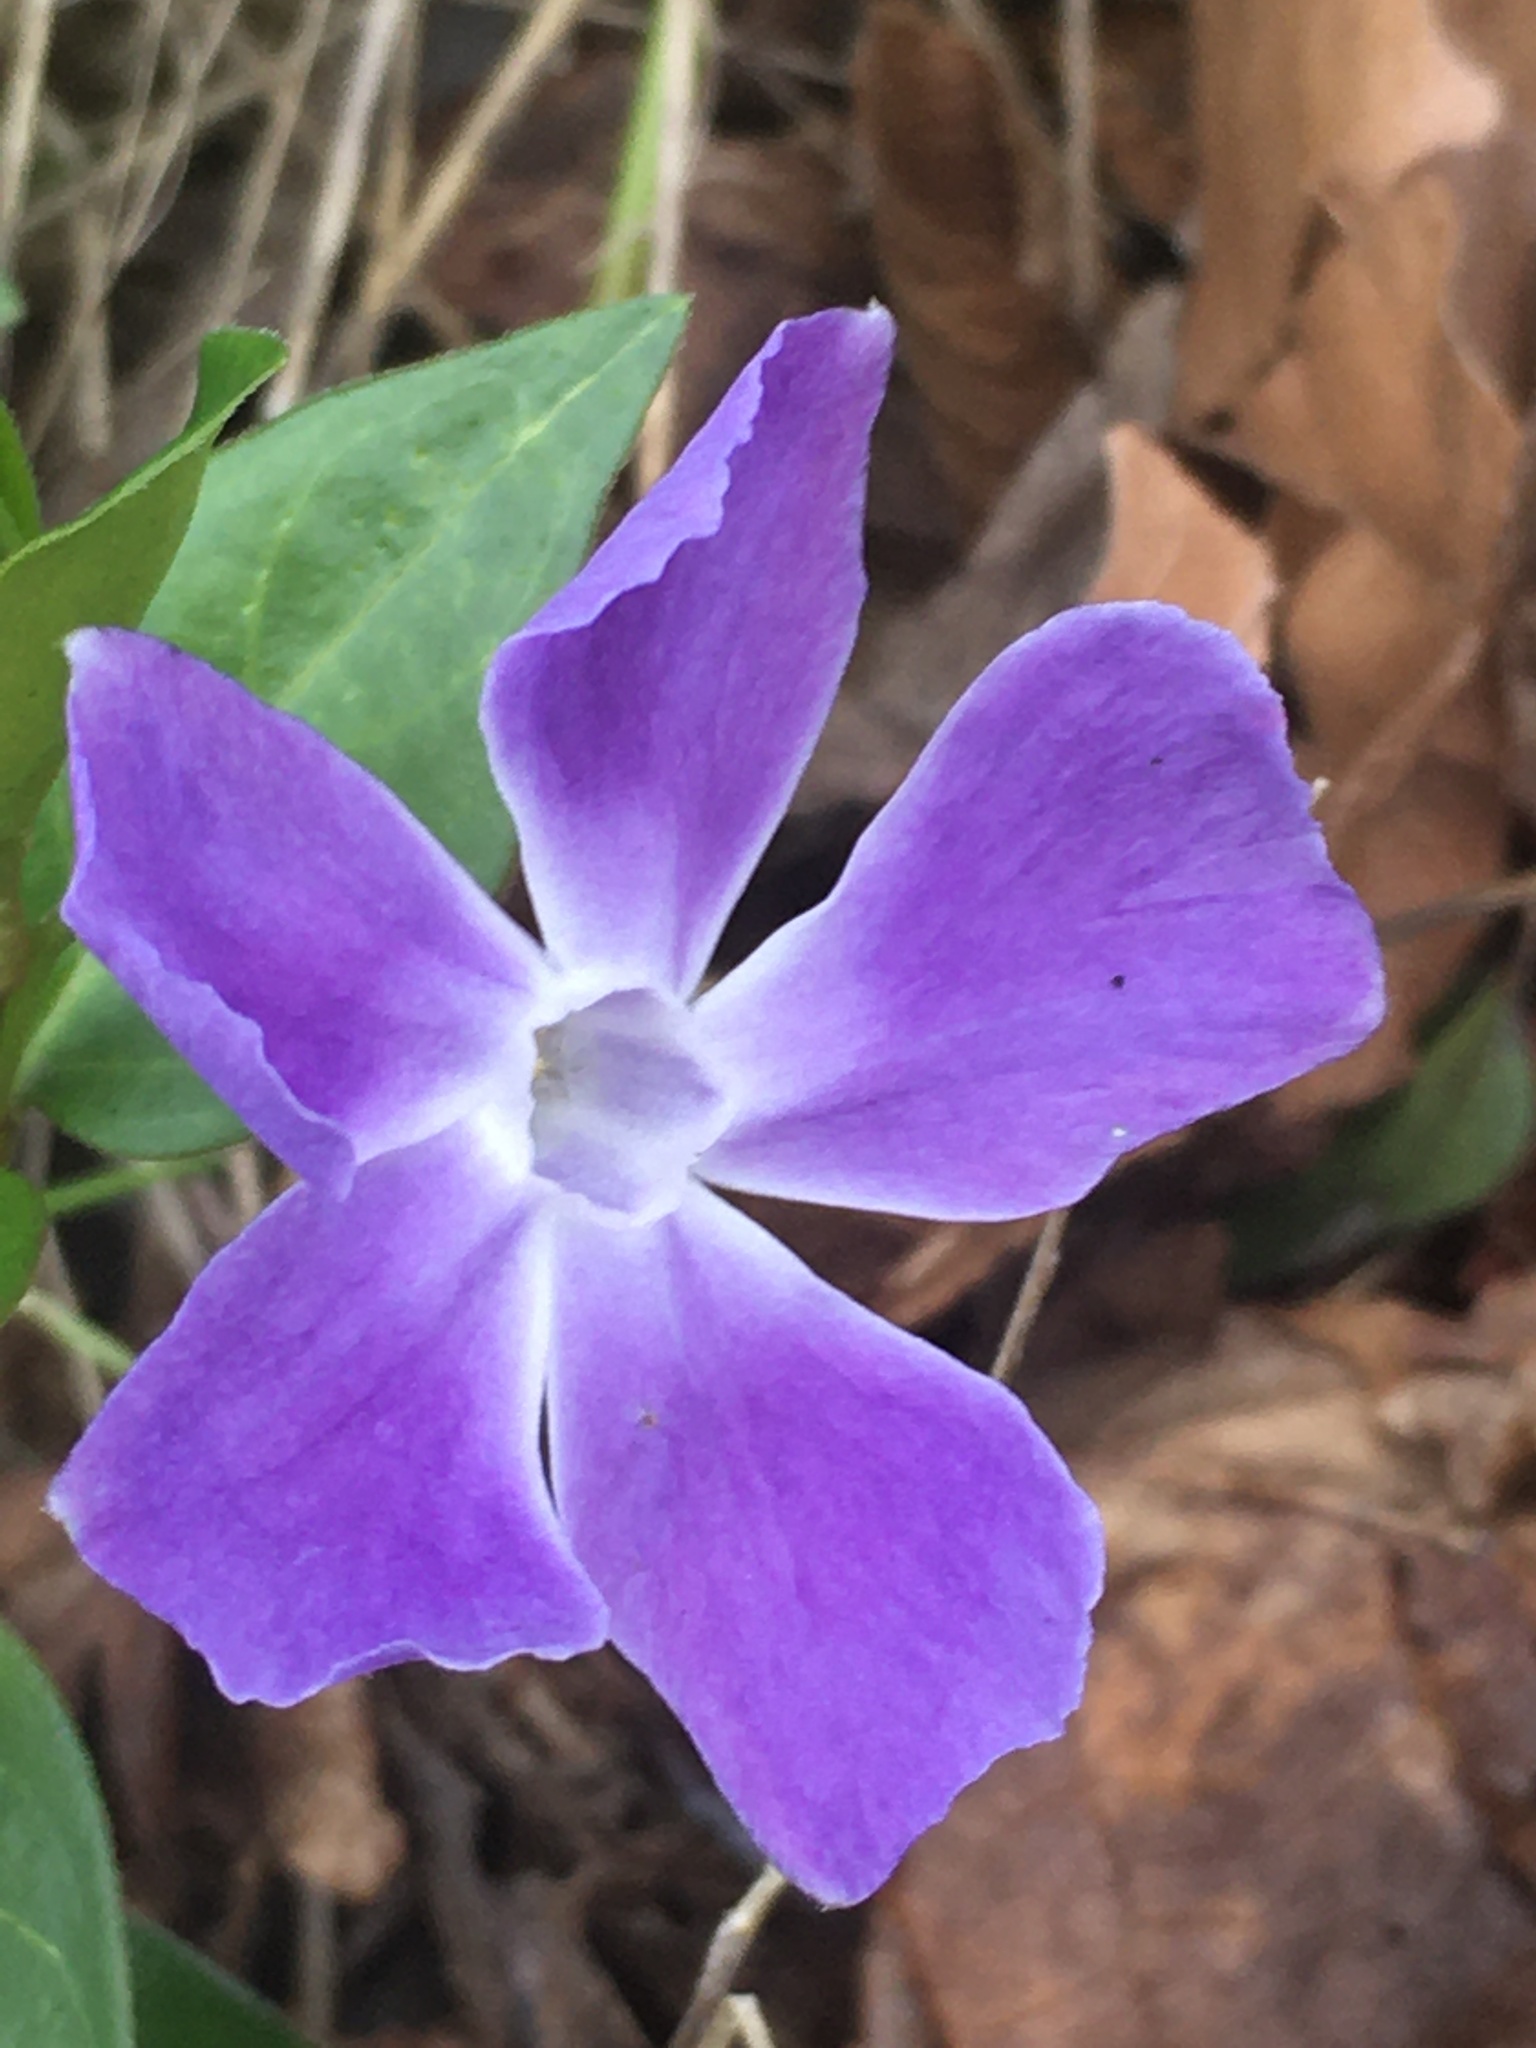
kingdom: Plantae
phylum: Tracheophyta
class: Magnoliopsida
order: Gentianales
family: Apocynaceae
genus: Vinca
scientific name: Vinca major
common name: Greater periwinkle
